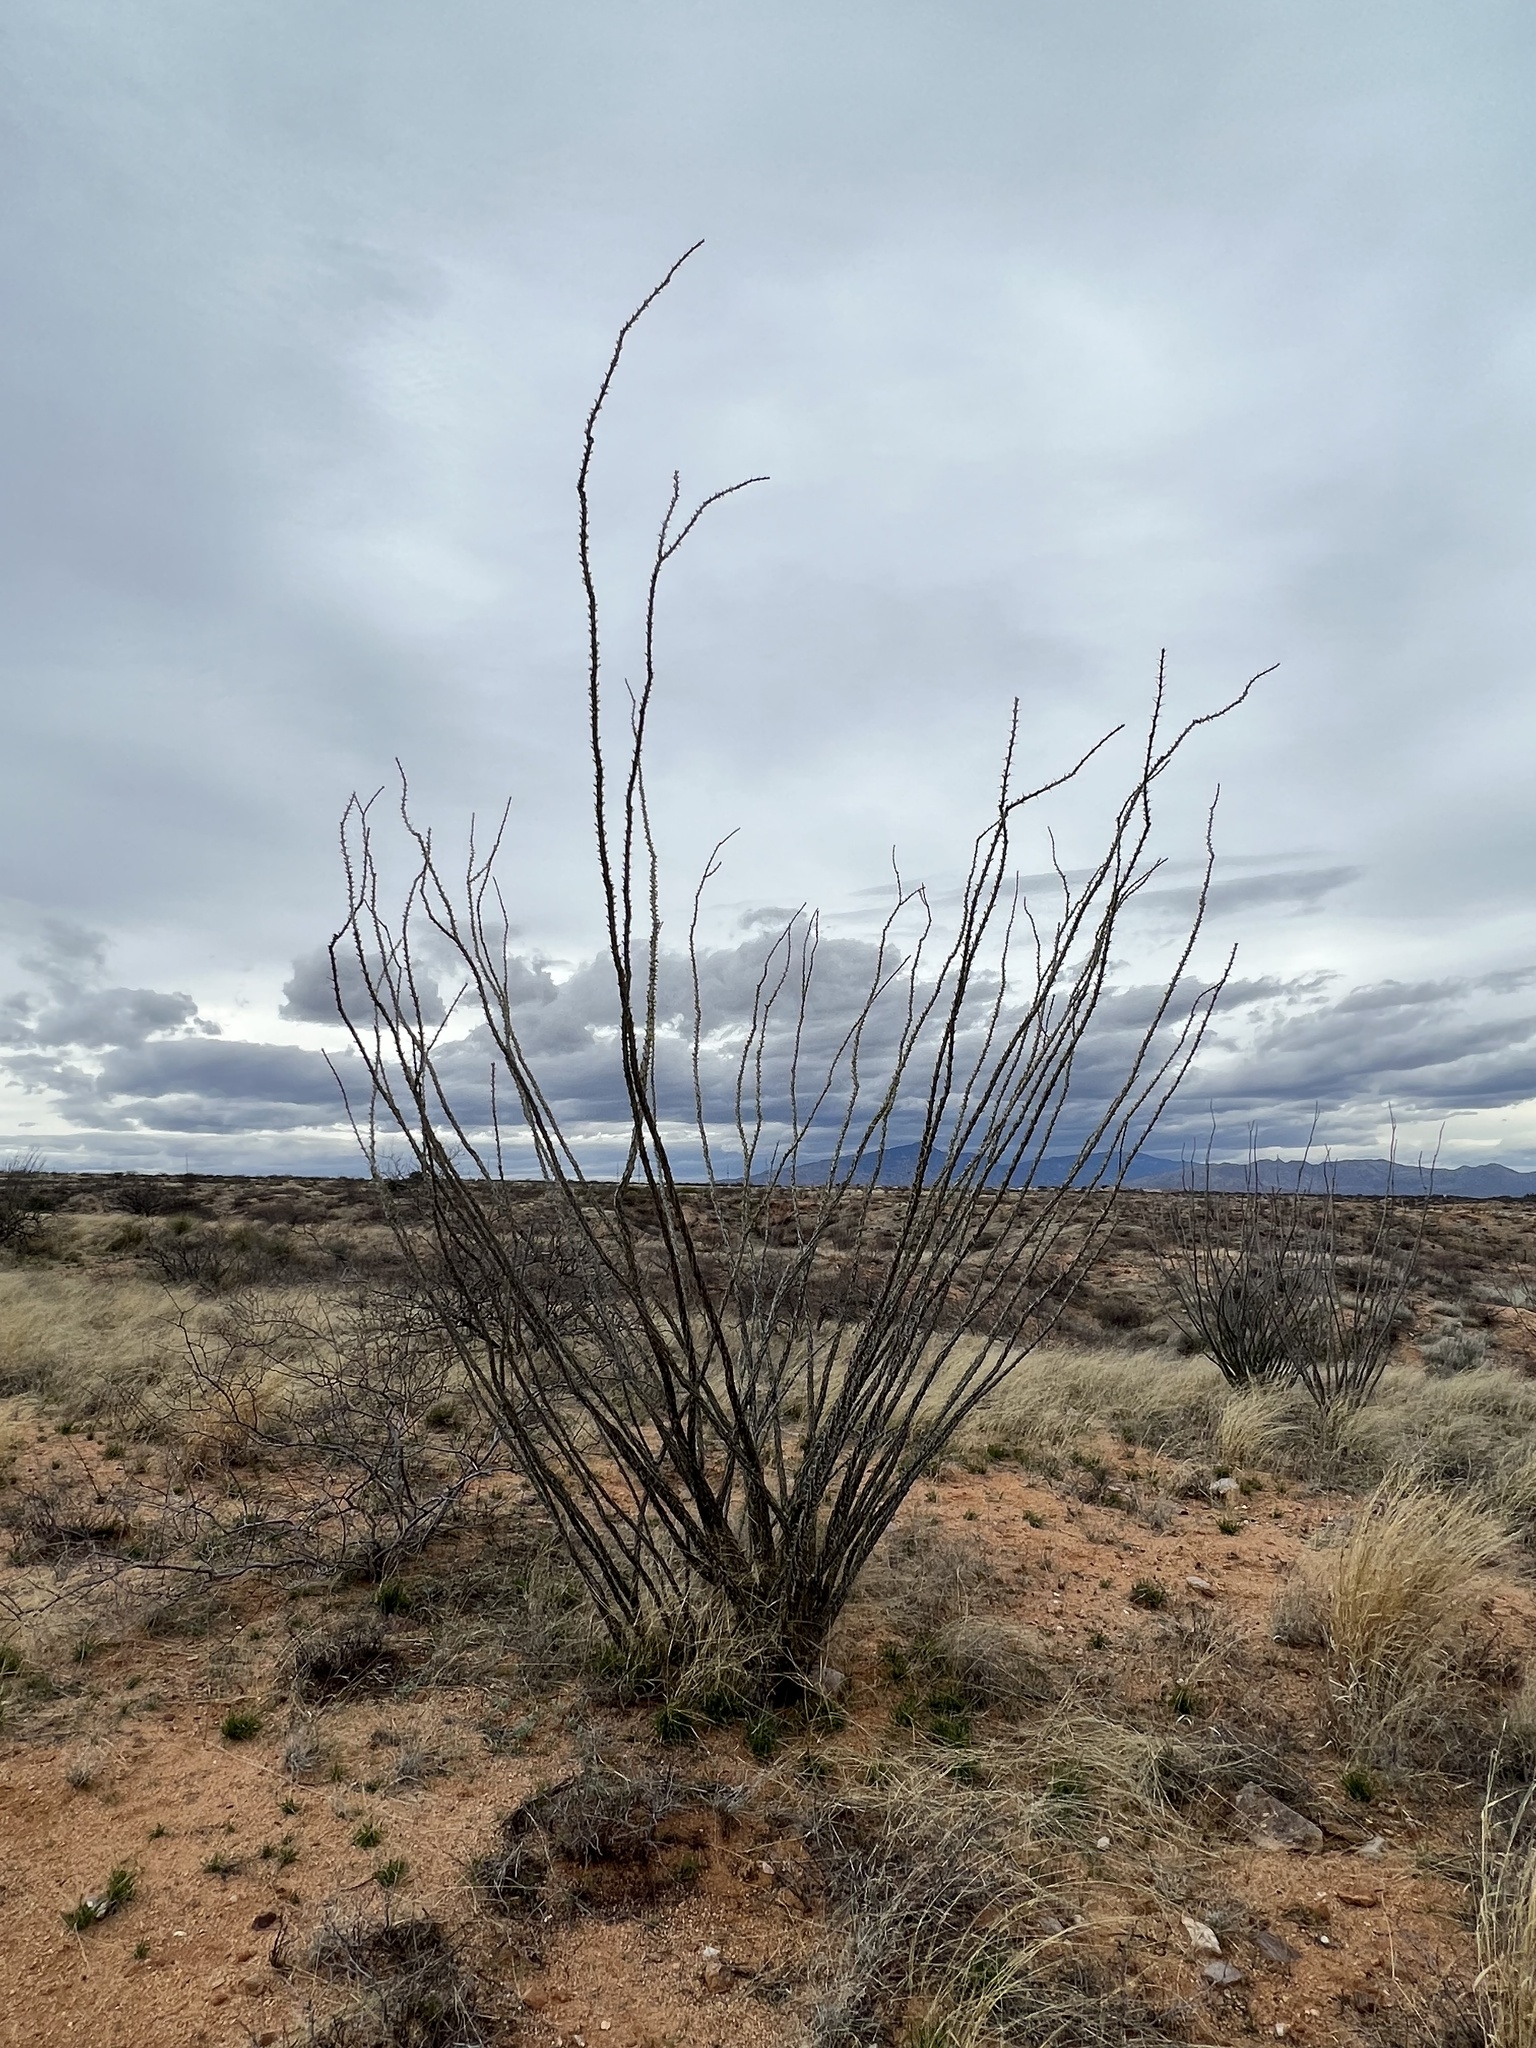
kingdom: Plantae
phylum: Tracheophyta
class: Magnoliopsida
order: Ericales
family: Fouquieriaceae
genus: Fouquieria
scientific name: Fouquieria splendens
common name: Vine-cactus
